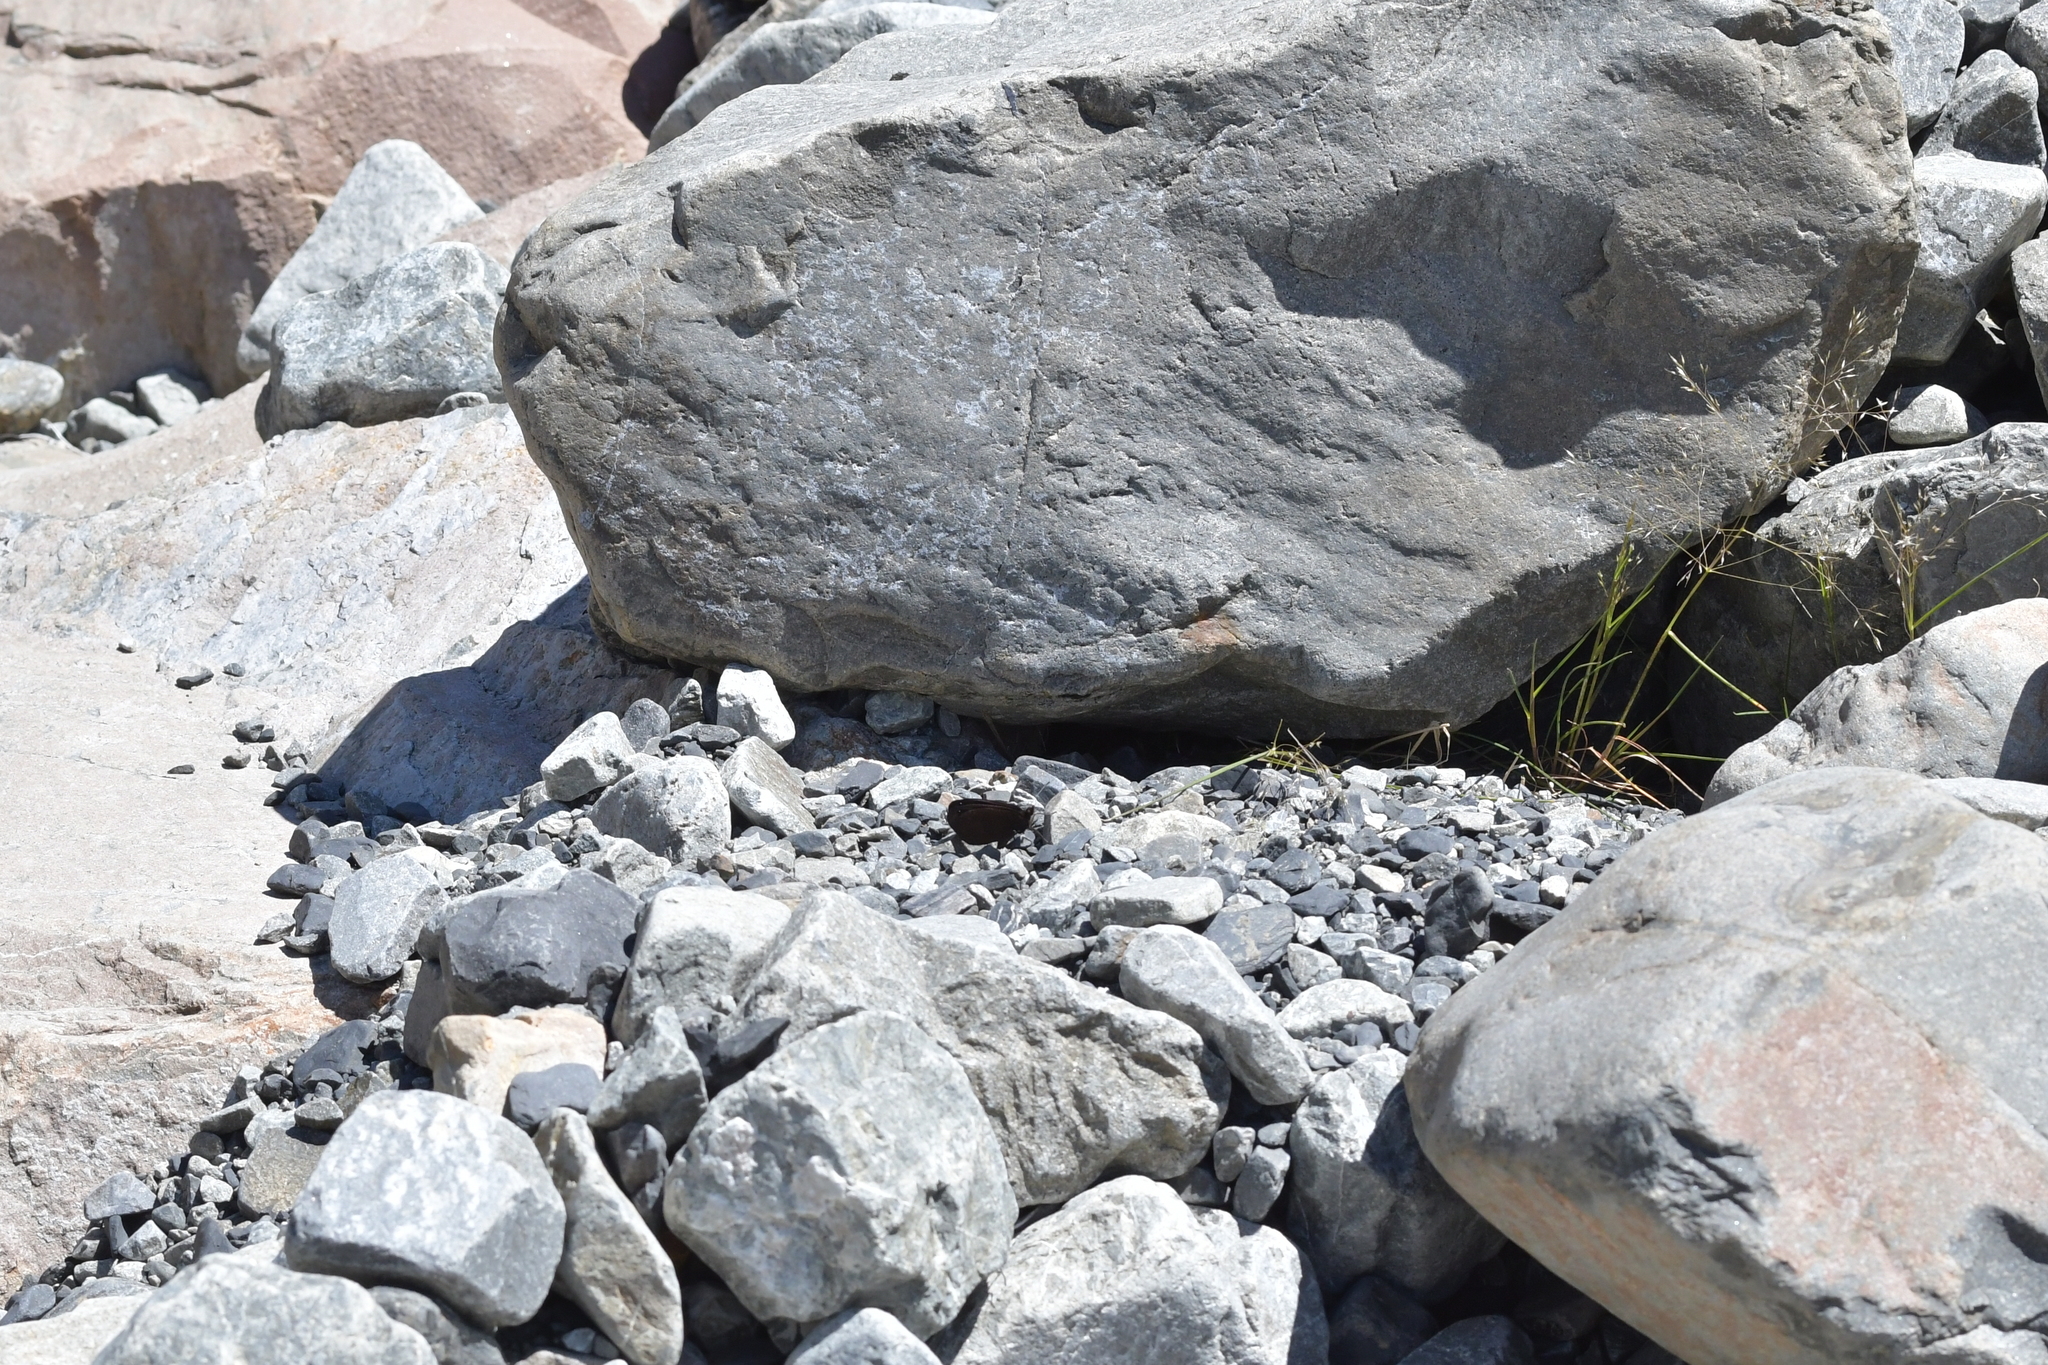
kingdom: Animalia
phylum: Arthropoda
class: Insecta
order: Lepidoptera
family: Nymphalidae
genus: Erebia
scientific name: Erebia Percnodaimon merula
